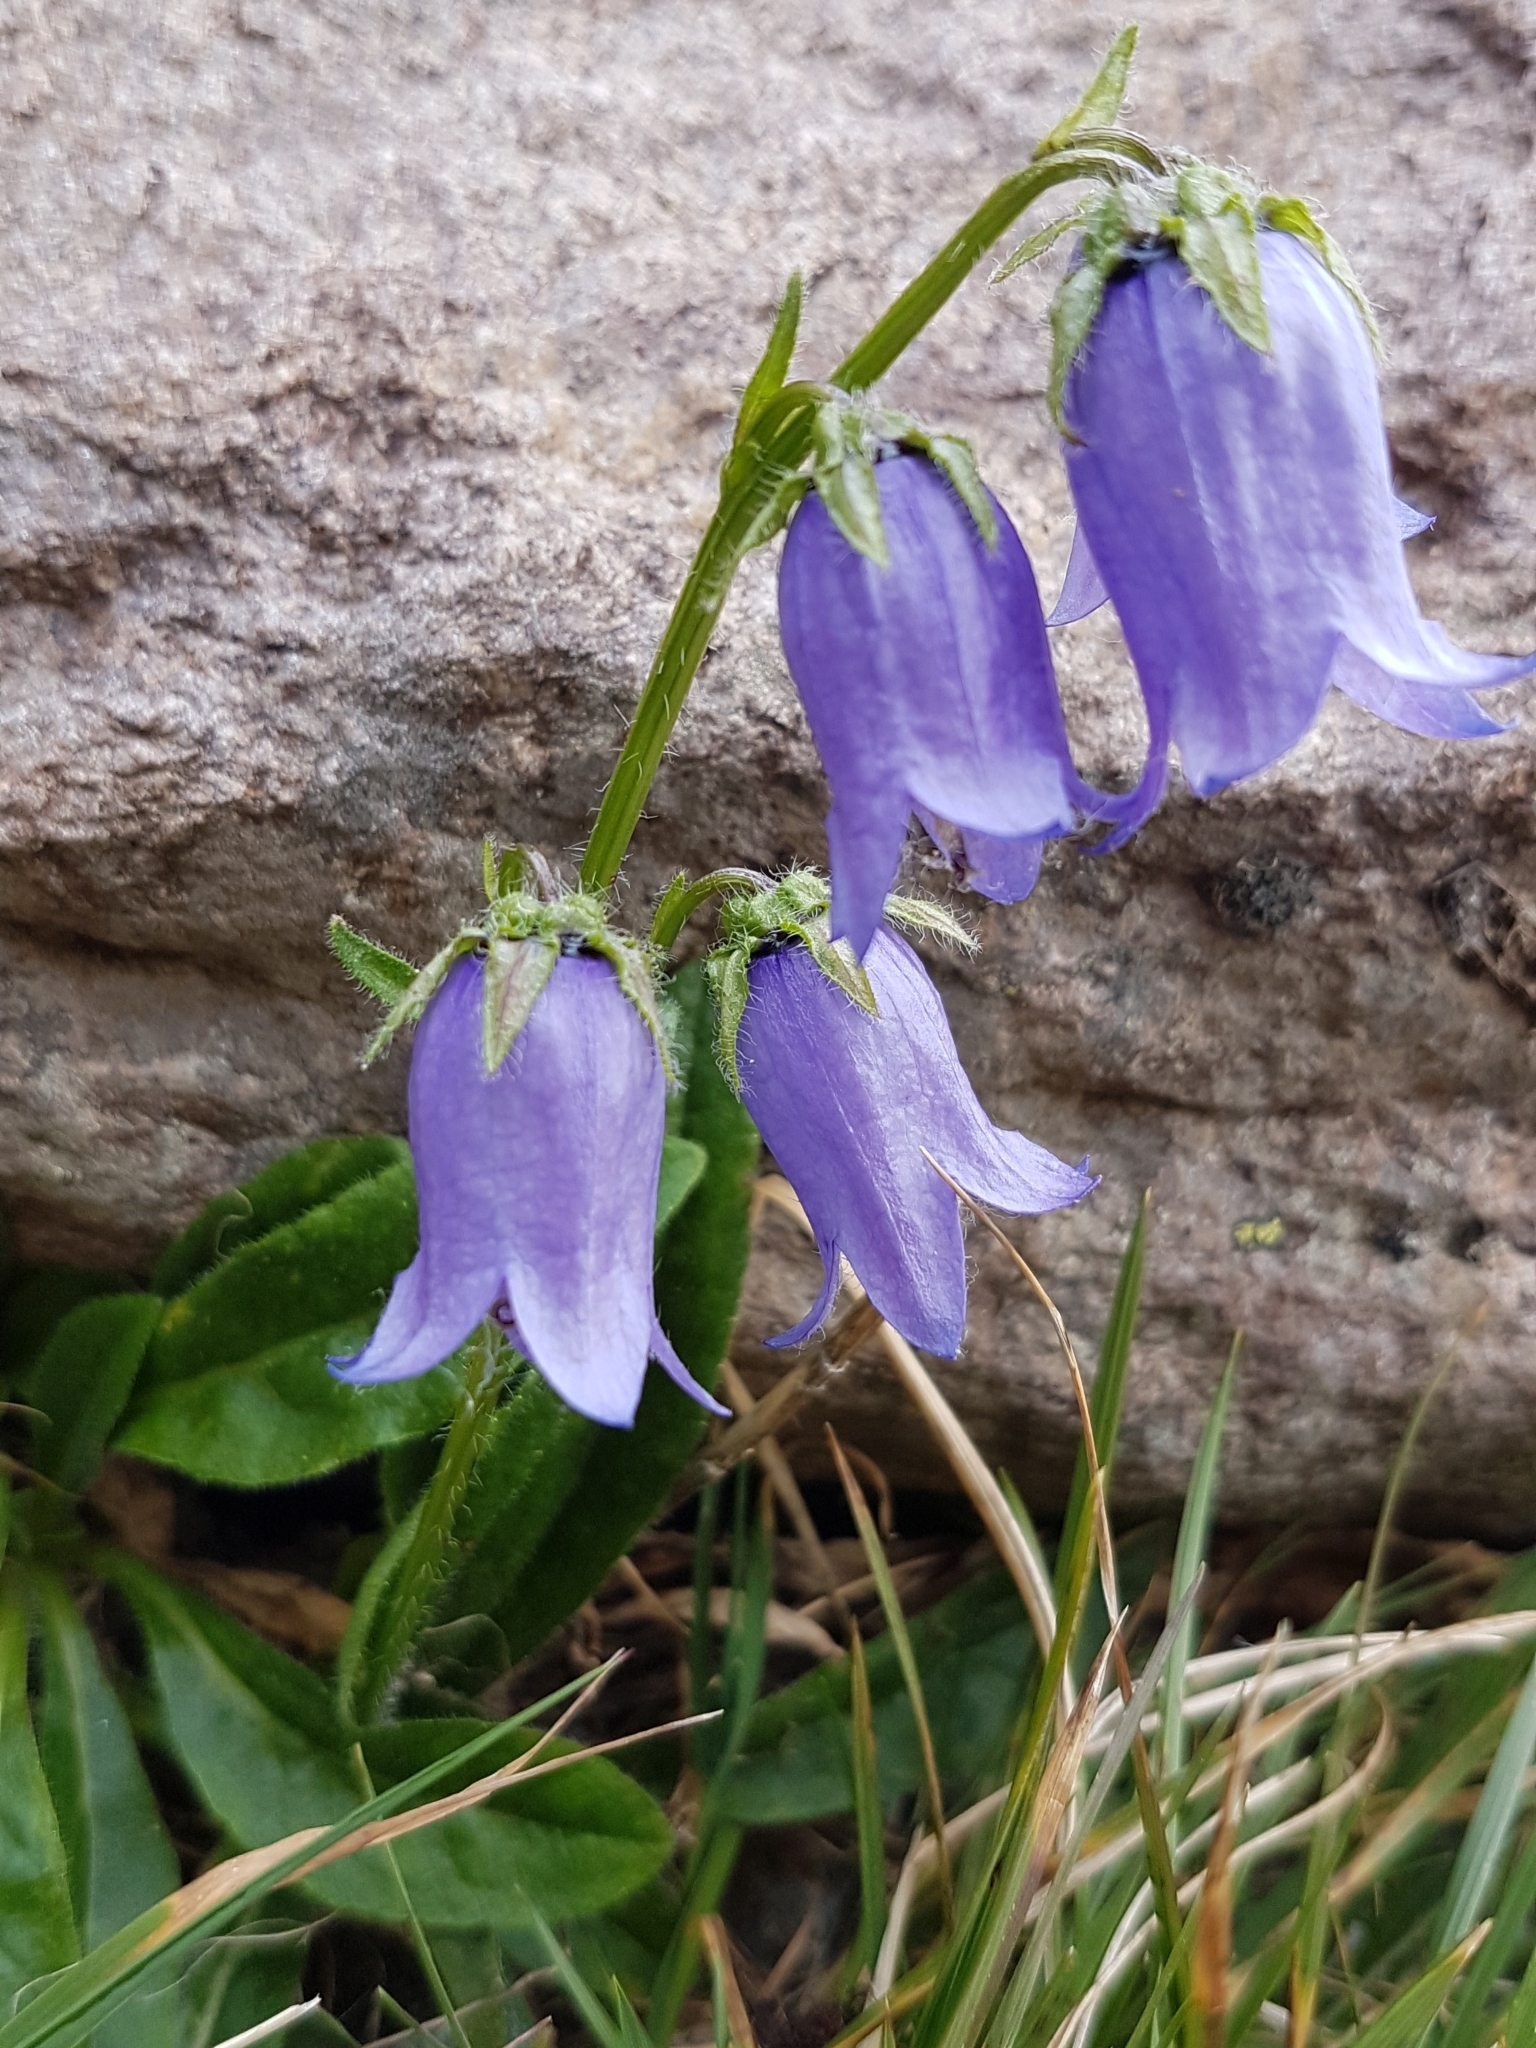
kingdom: Plantae
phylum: Tracheophyta
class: Magnoliopsida
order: Asterales
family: Campanulaceae
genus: Campanula
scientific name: Campanula barbata
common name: Bearded bellflower
